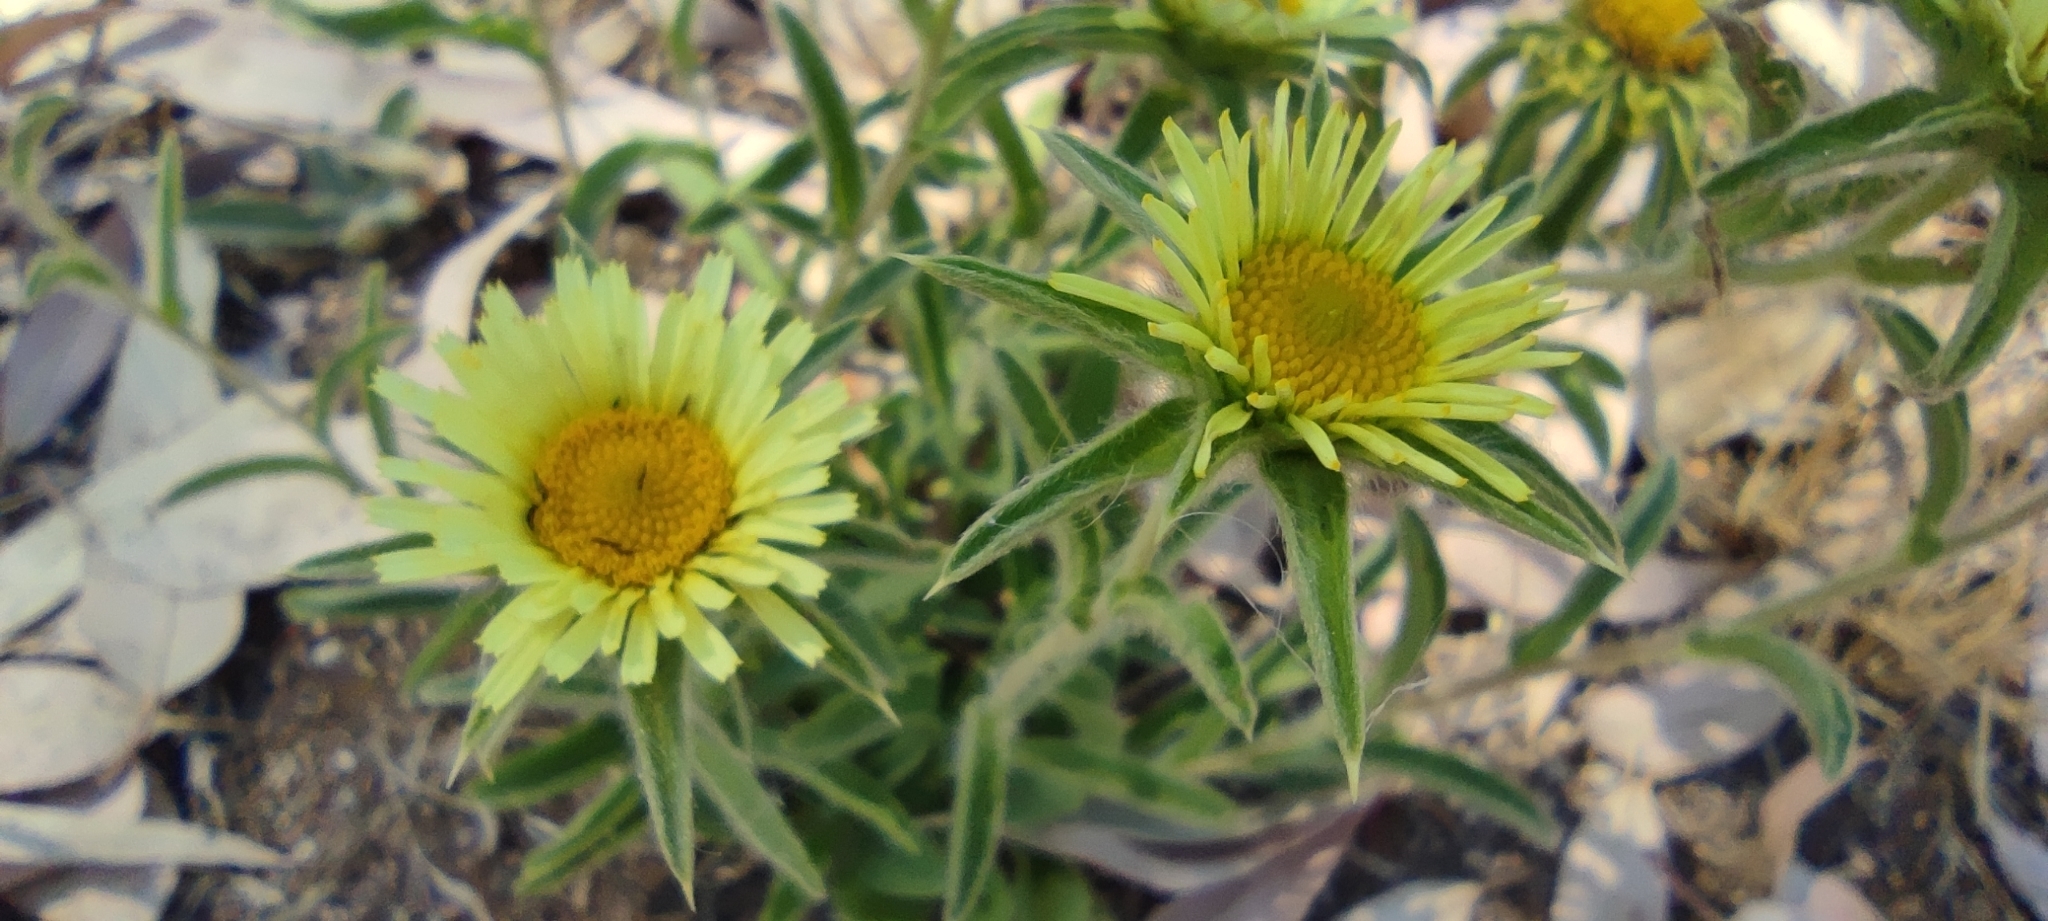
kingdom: Plantae
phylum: Tracheophyta
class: Magnoliopsida
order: Asterales
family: Asteraceae
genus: Pallenis
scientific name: Pallenis spinosa
